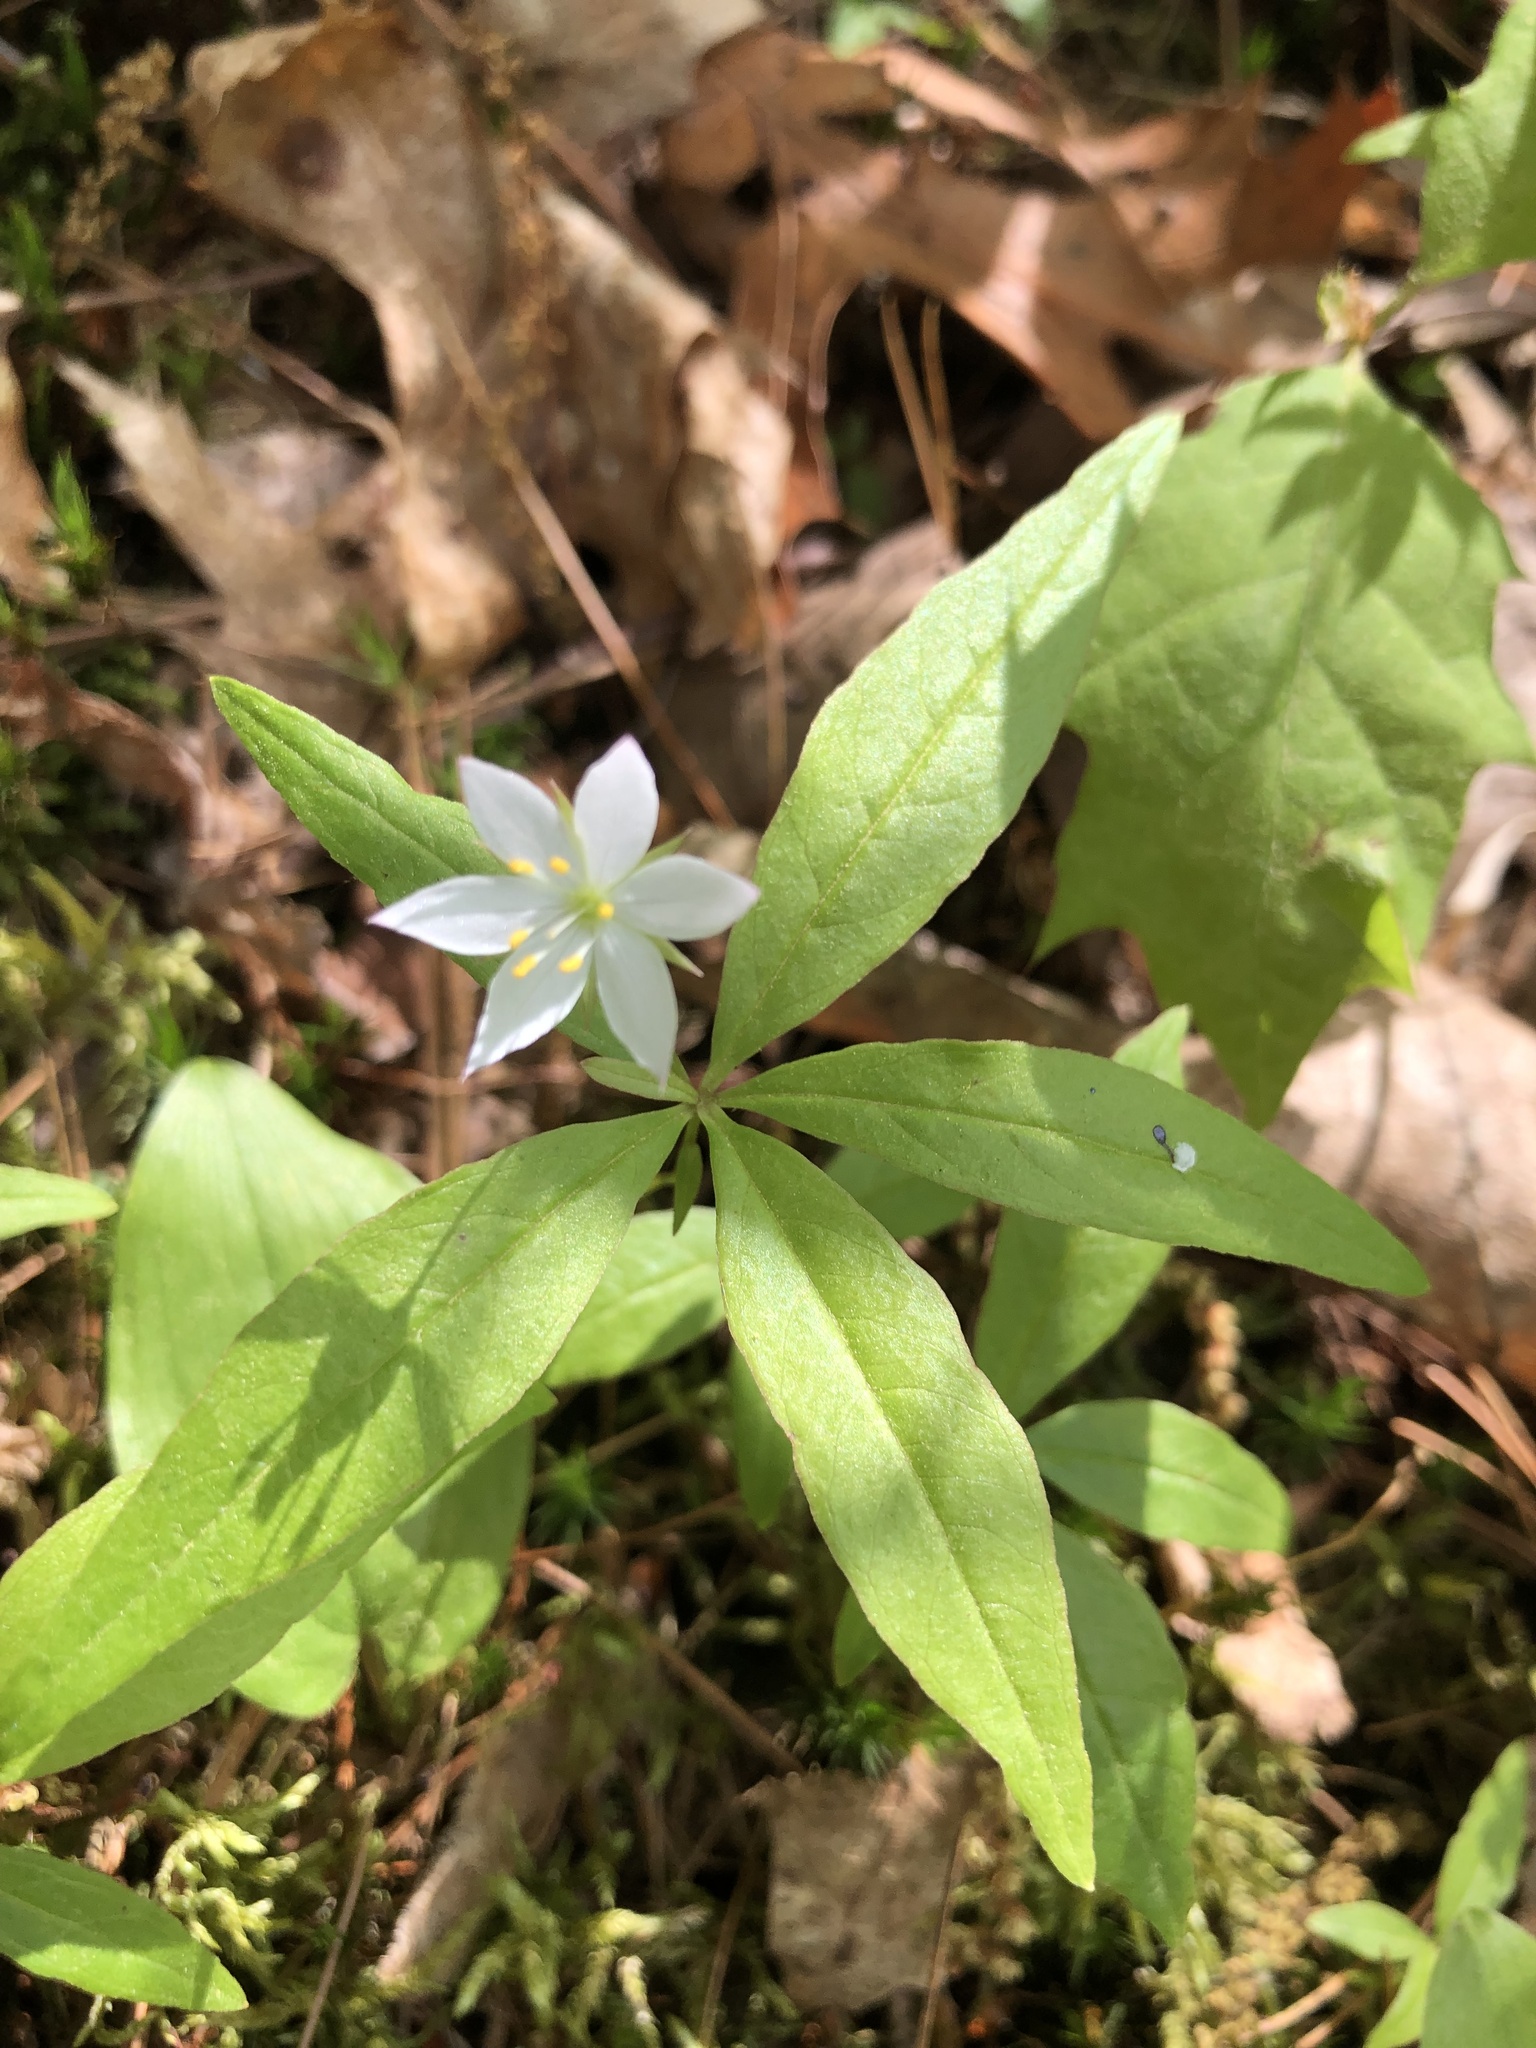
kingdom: Plantae
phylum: Tracheophyta
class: Magnoliopsida
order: Ericales
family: Primulaceae
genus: Lysimachia
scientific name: Lysimachia borealis
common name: American starflower
